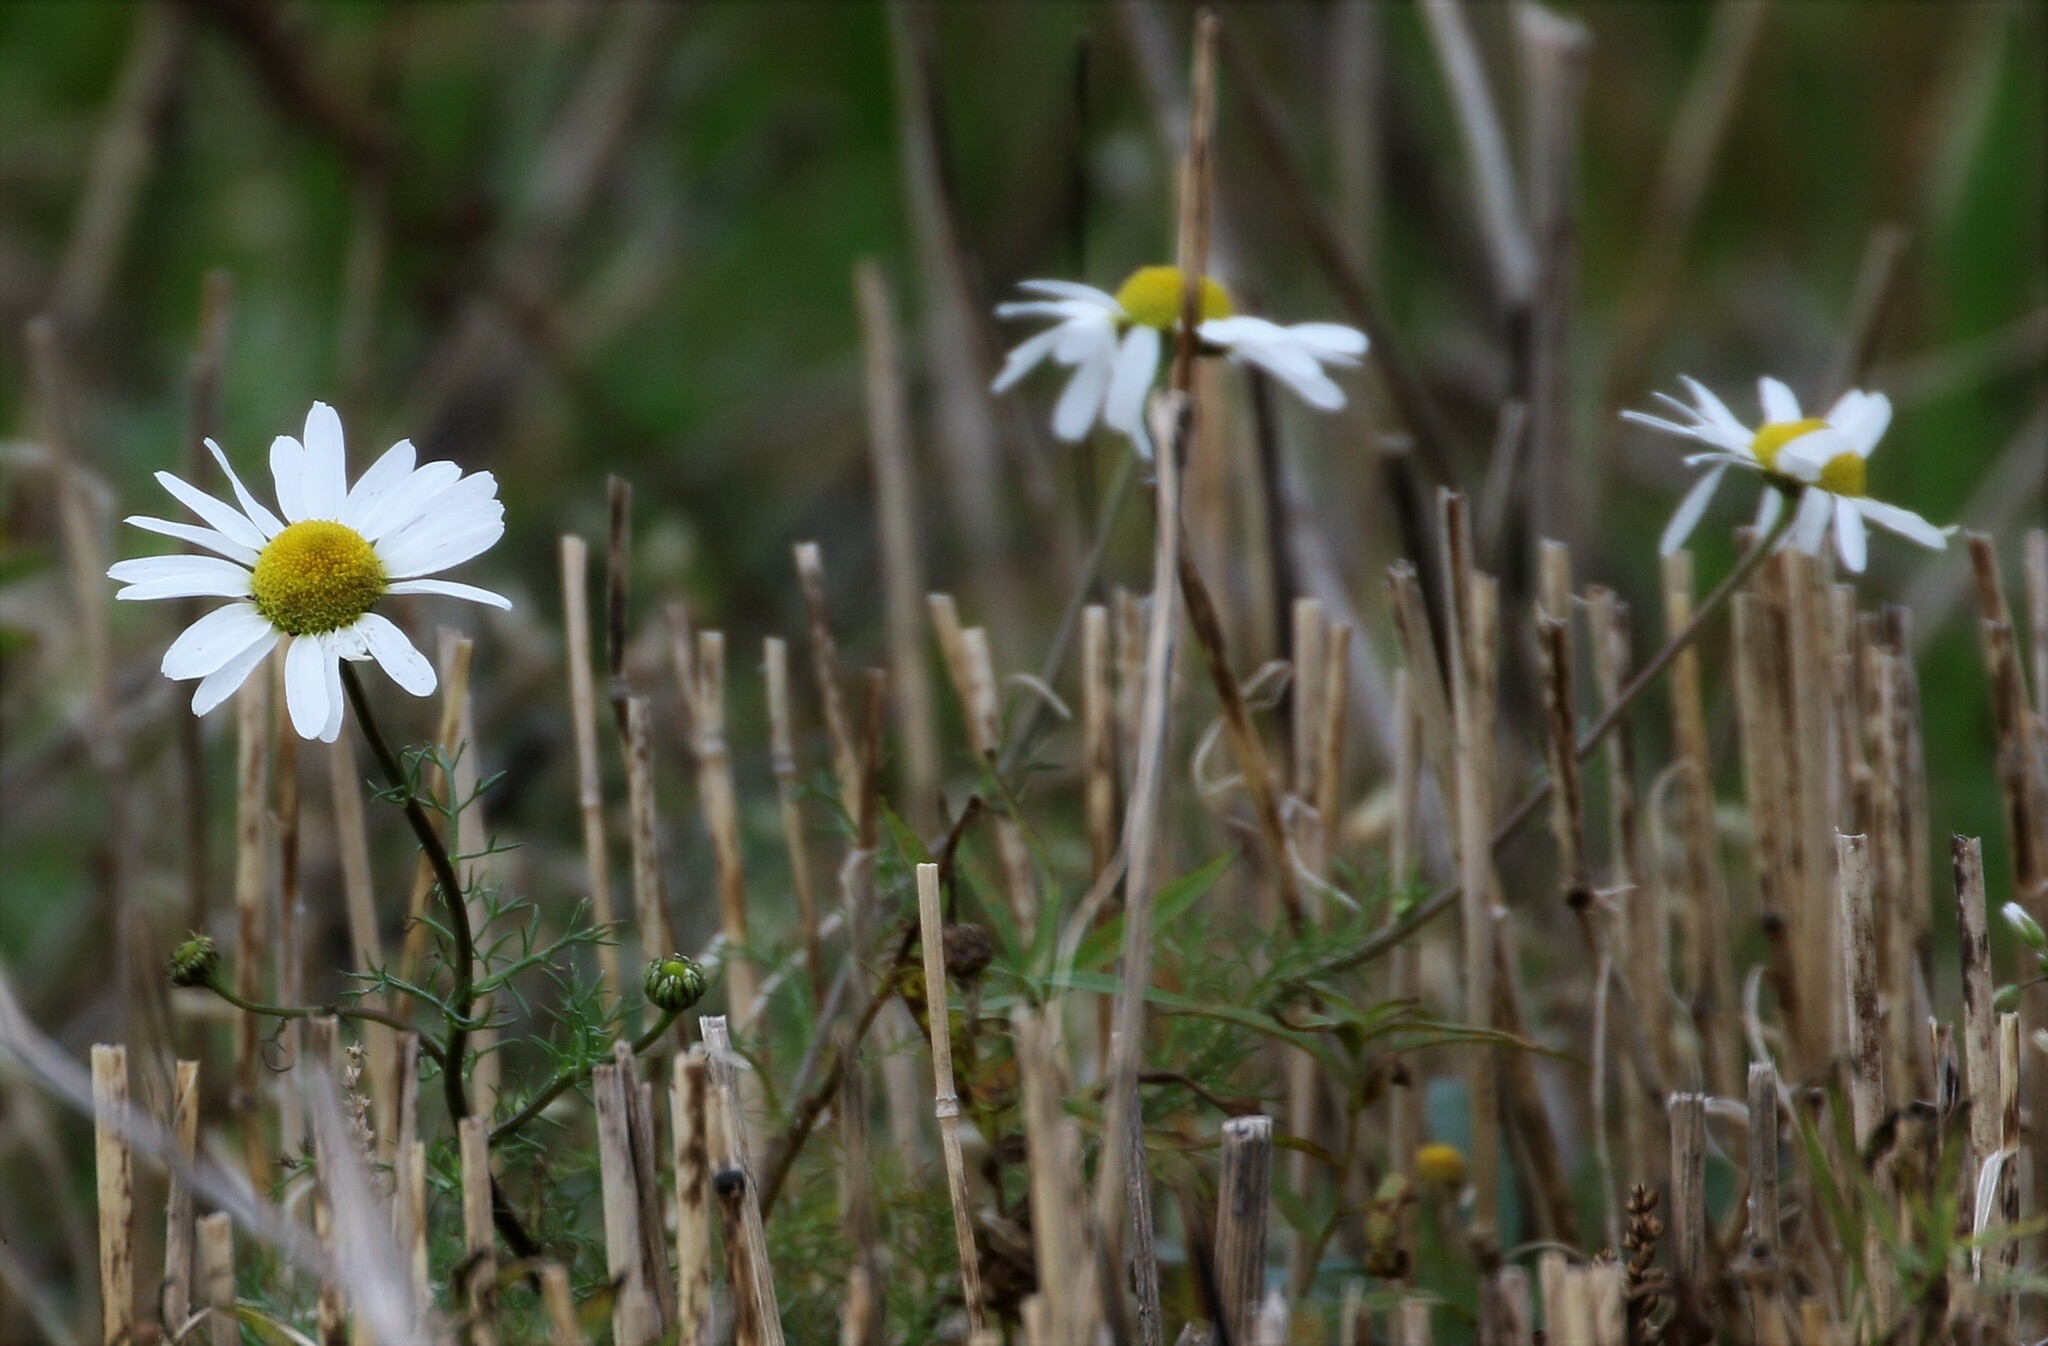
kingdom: Plantae
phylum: Tracheophyta
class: Magnoliopsida
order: Asterales
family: Asteraceae
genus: Tripleurospermum
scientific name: Tripleurospermum inodorum
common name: Scentless mayweed
